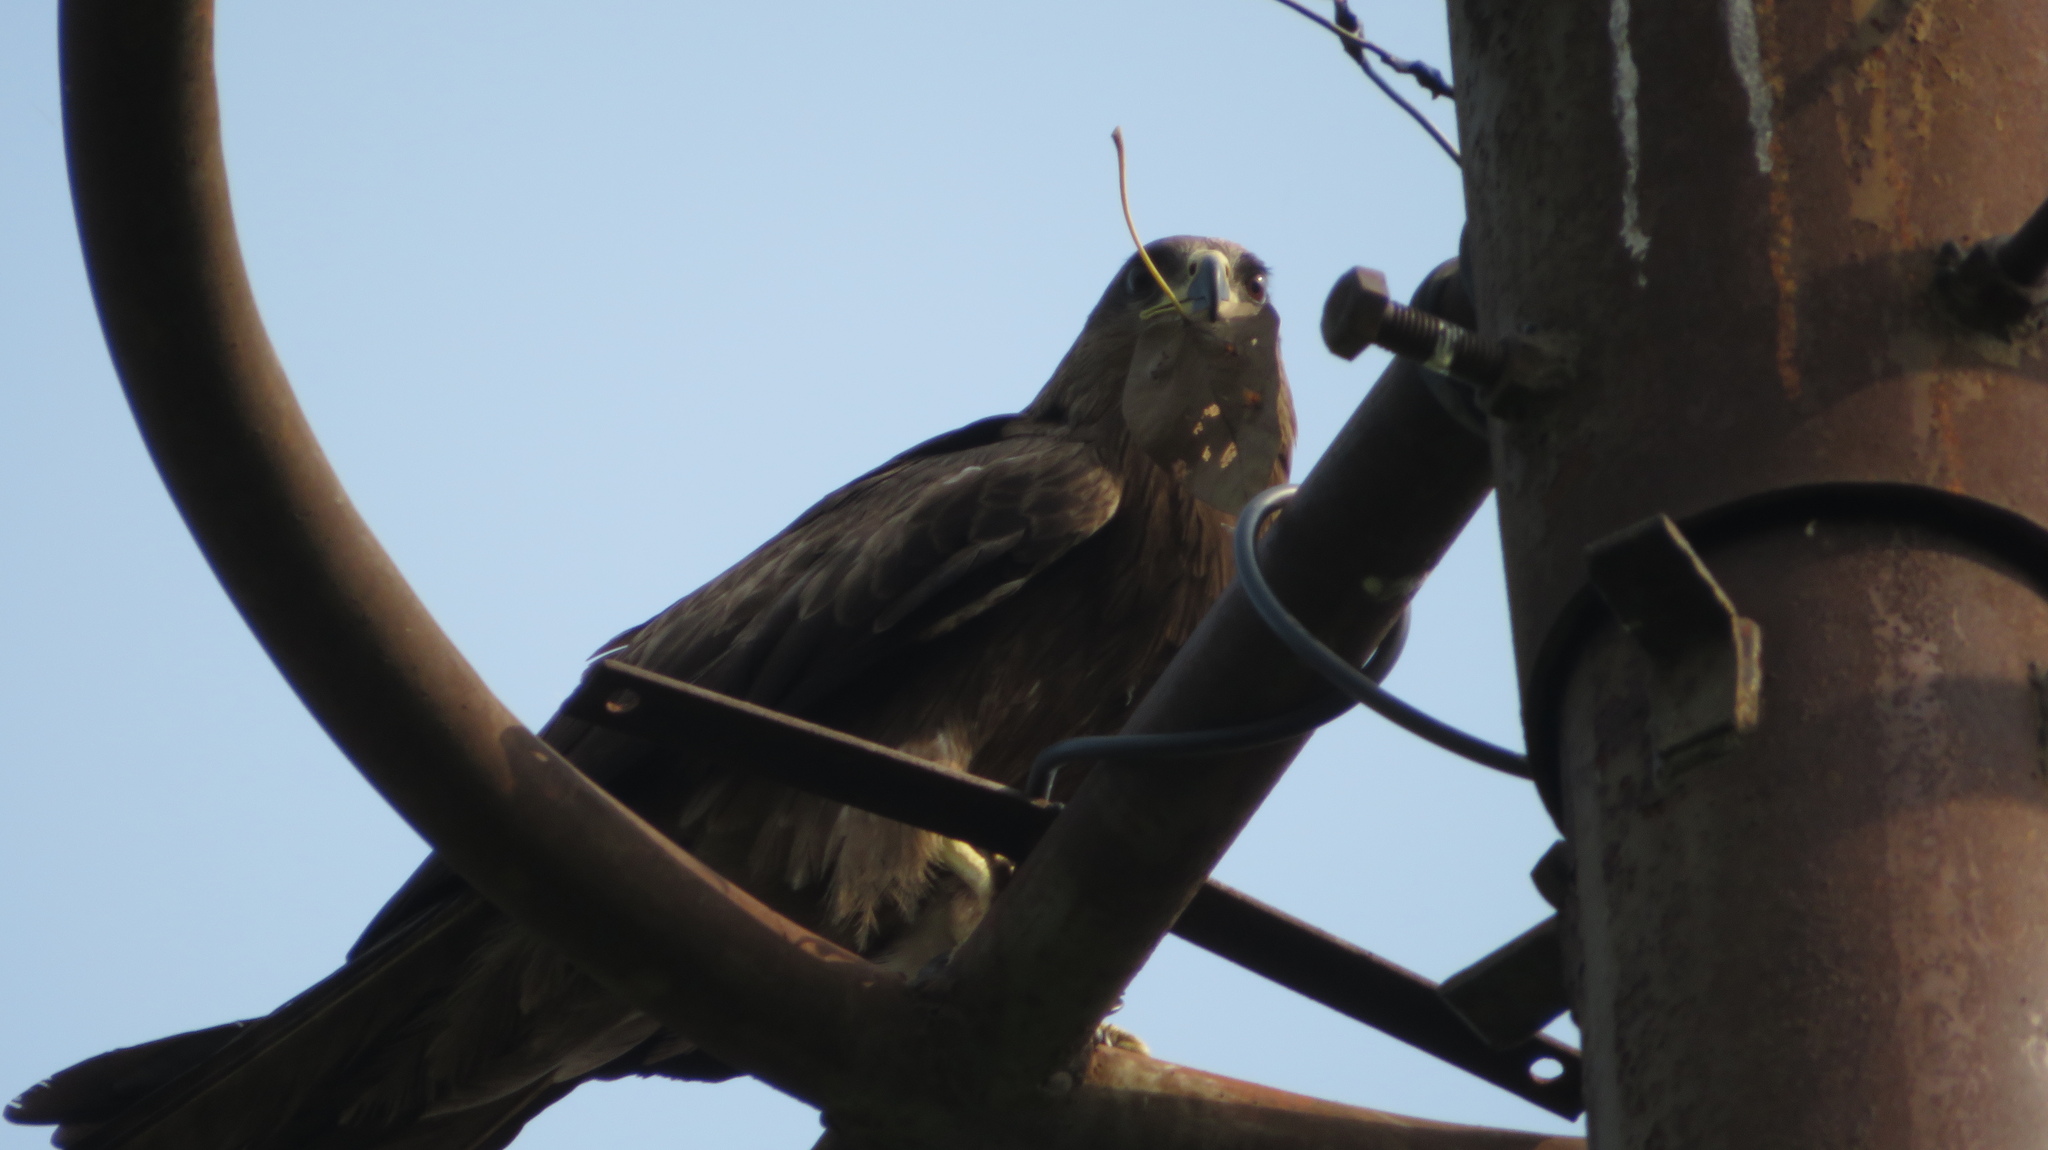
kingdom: Animalia
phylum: Chordata
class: Aves
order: Accipitriformes
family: Accipitridae
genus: Milvus
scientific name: Milvus migrans
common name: Black kite
